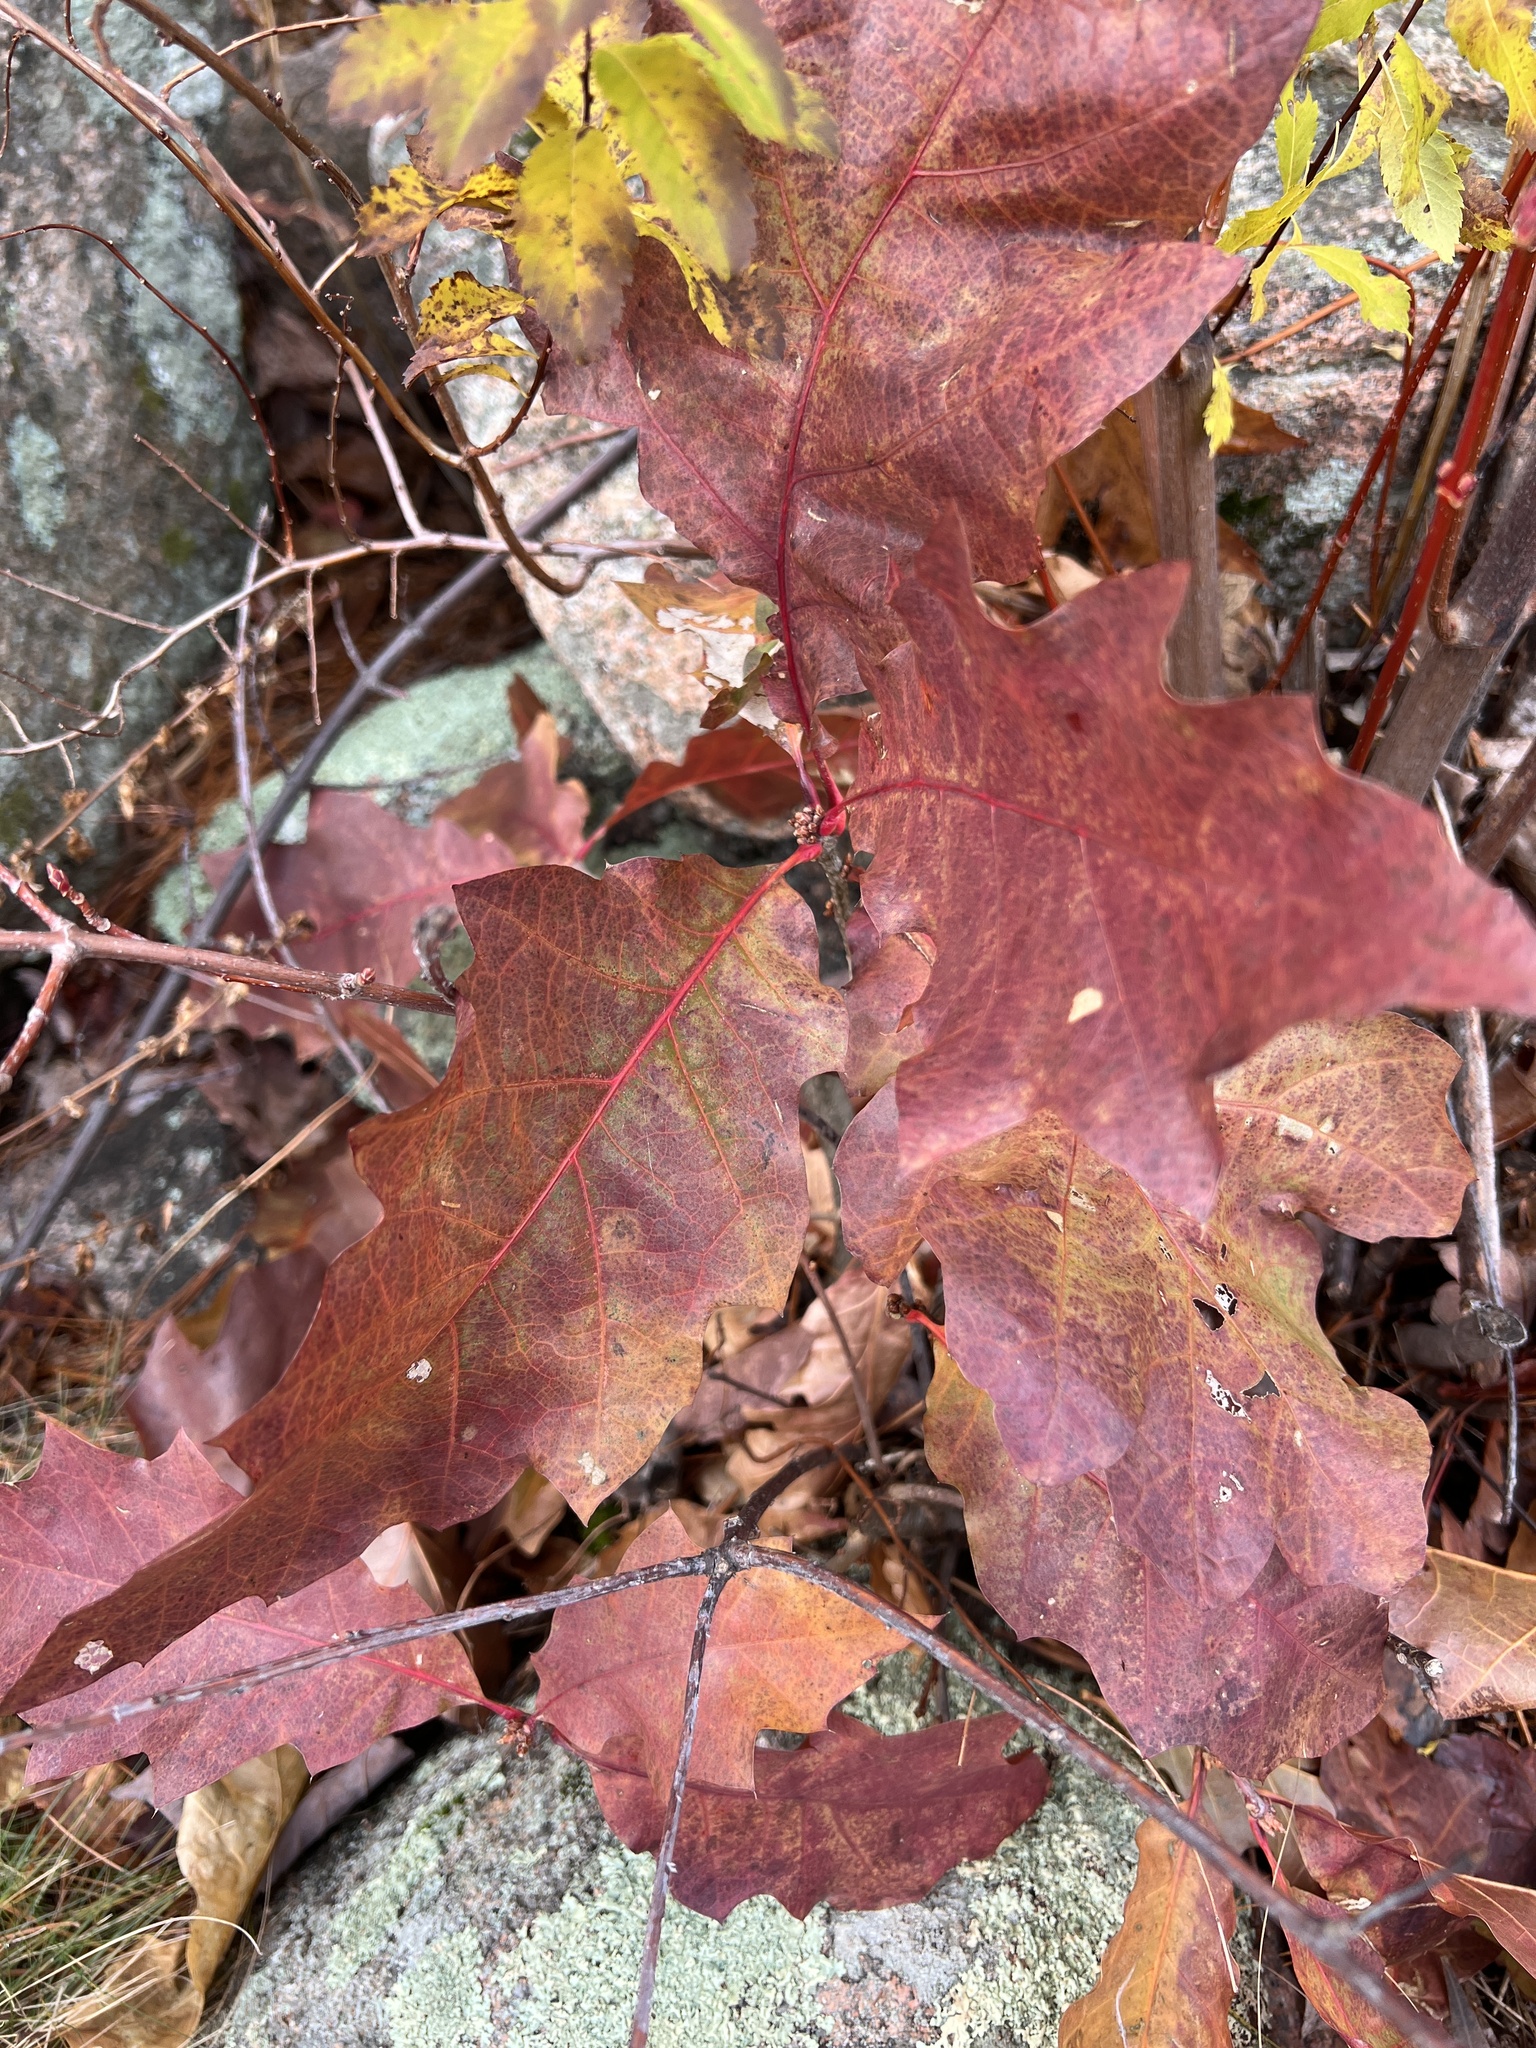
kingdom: Plantae
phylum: Tracheophyta
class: Magnoliopsida
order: Fagales
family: Fagaceae
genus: Quercus
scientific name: Quercus rubra
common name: Red oak
